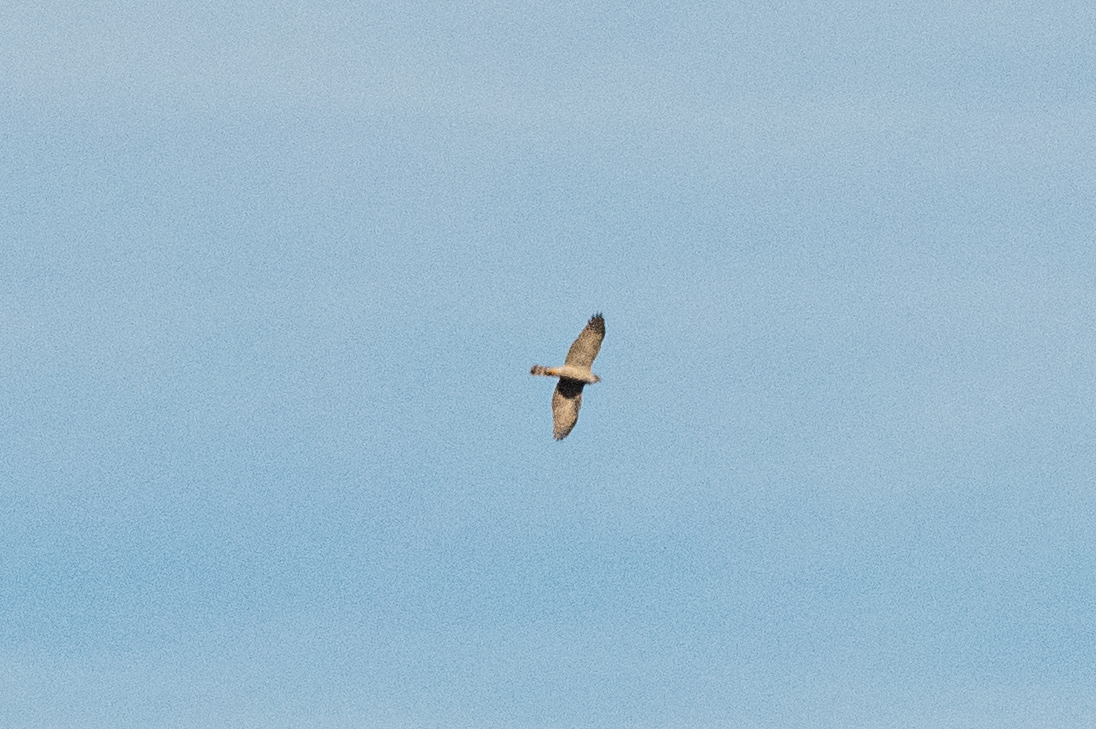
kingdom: Animalia
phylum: Chordata
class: Aves
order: Accipitriformes
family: Accipitridae
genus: Accipiter
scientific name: Accipiter nisus
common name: Eurasian sparrowhawk
